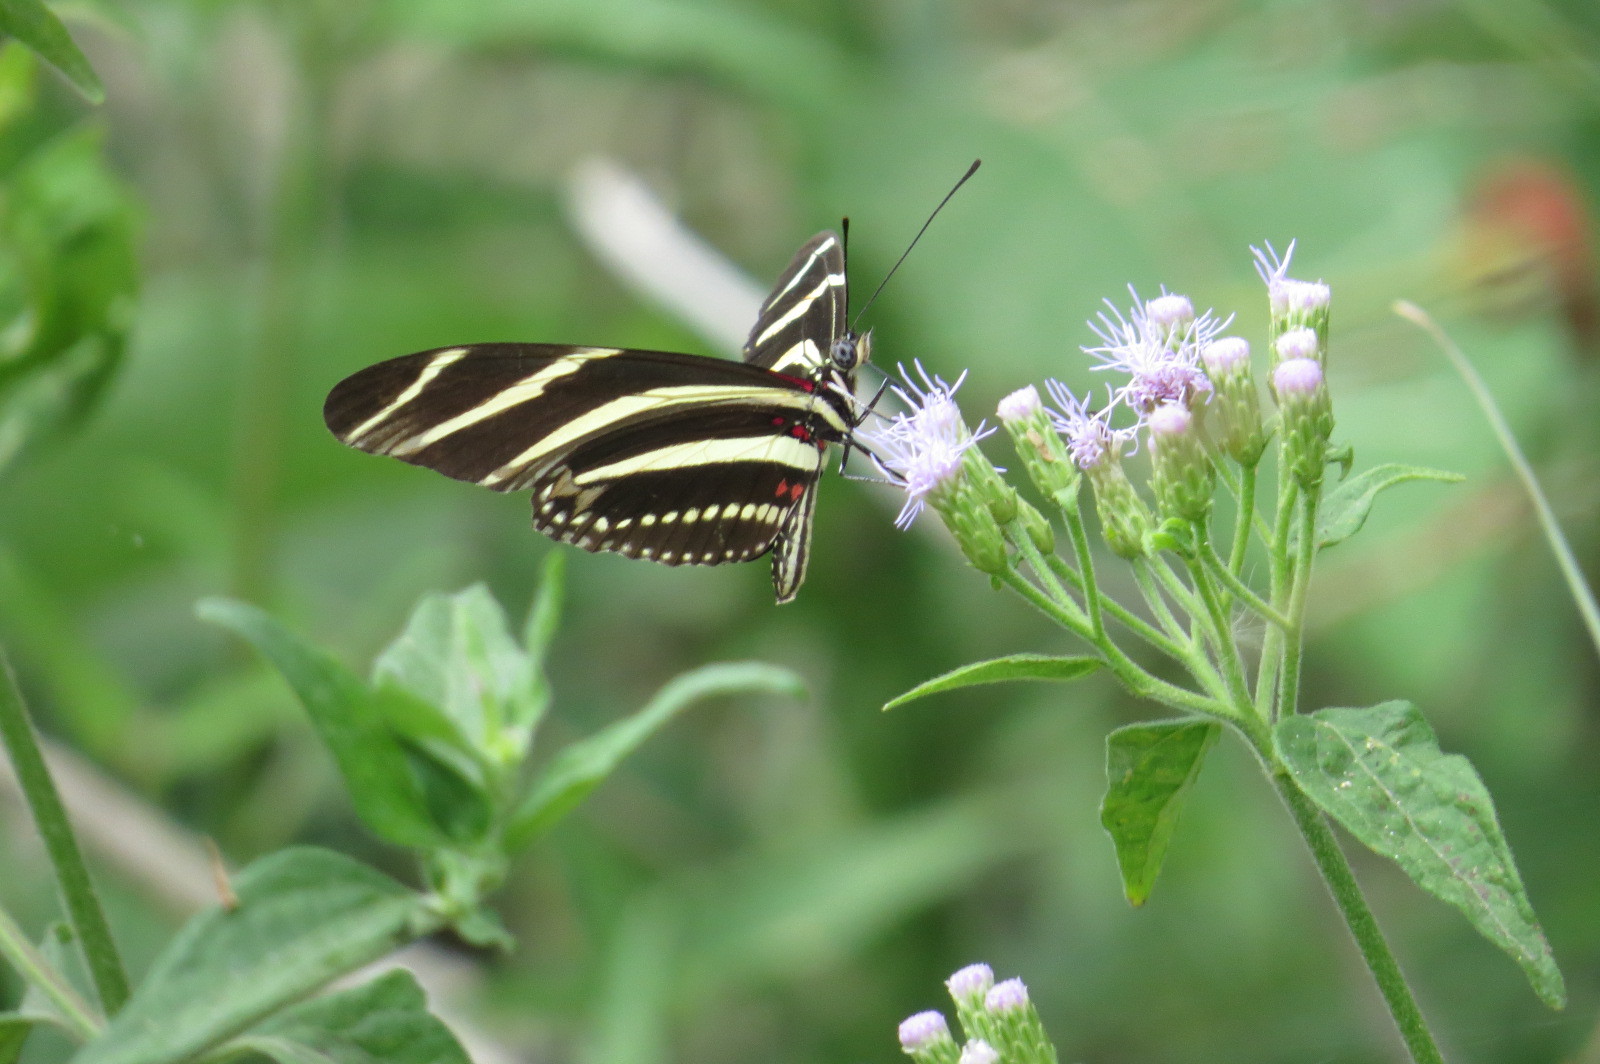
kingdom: Animalia
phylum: Arthropoda
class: Insecta
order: Lepidoptera
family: Nymphalidae
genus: Heliconius
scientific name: Heliconius charithonia
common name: Zebra long wing
